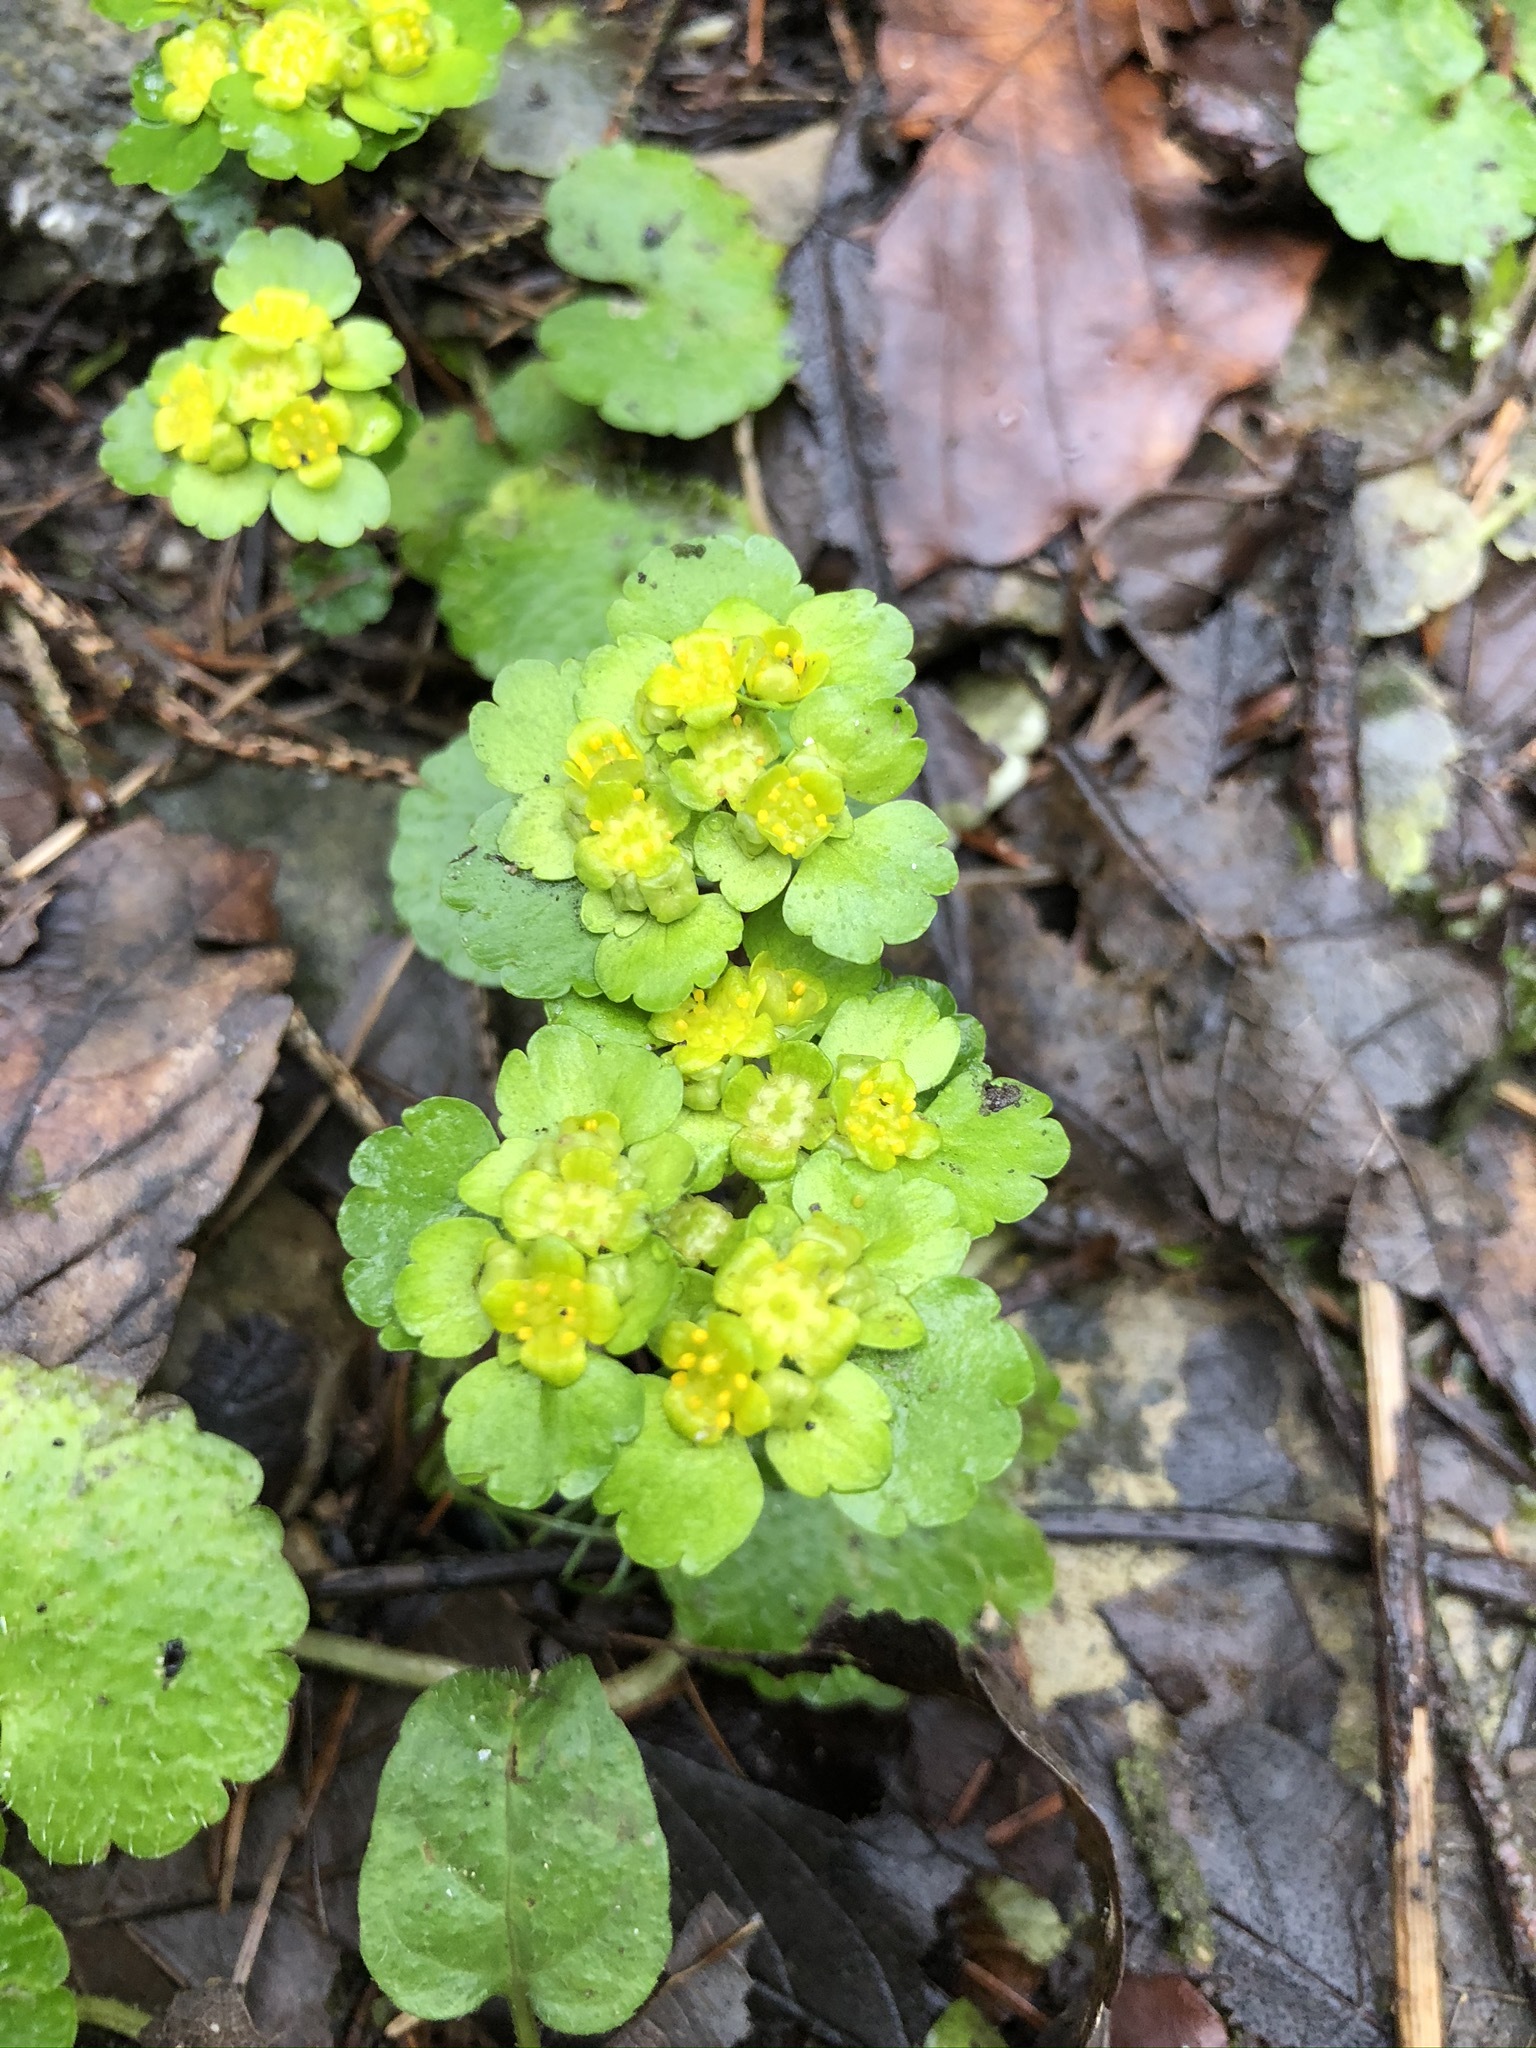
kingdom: Plantae
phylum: Tracheophyta
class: Magnoliopsida
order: Saxifragales
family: Saxifragaceae
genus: Chrysosplenium
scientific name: Chrysosplenium alternifolium
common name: Alternate-leaved golden-saxifrage
